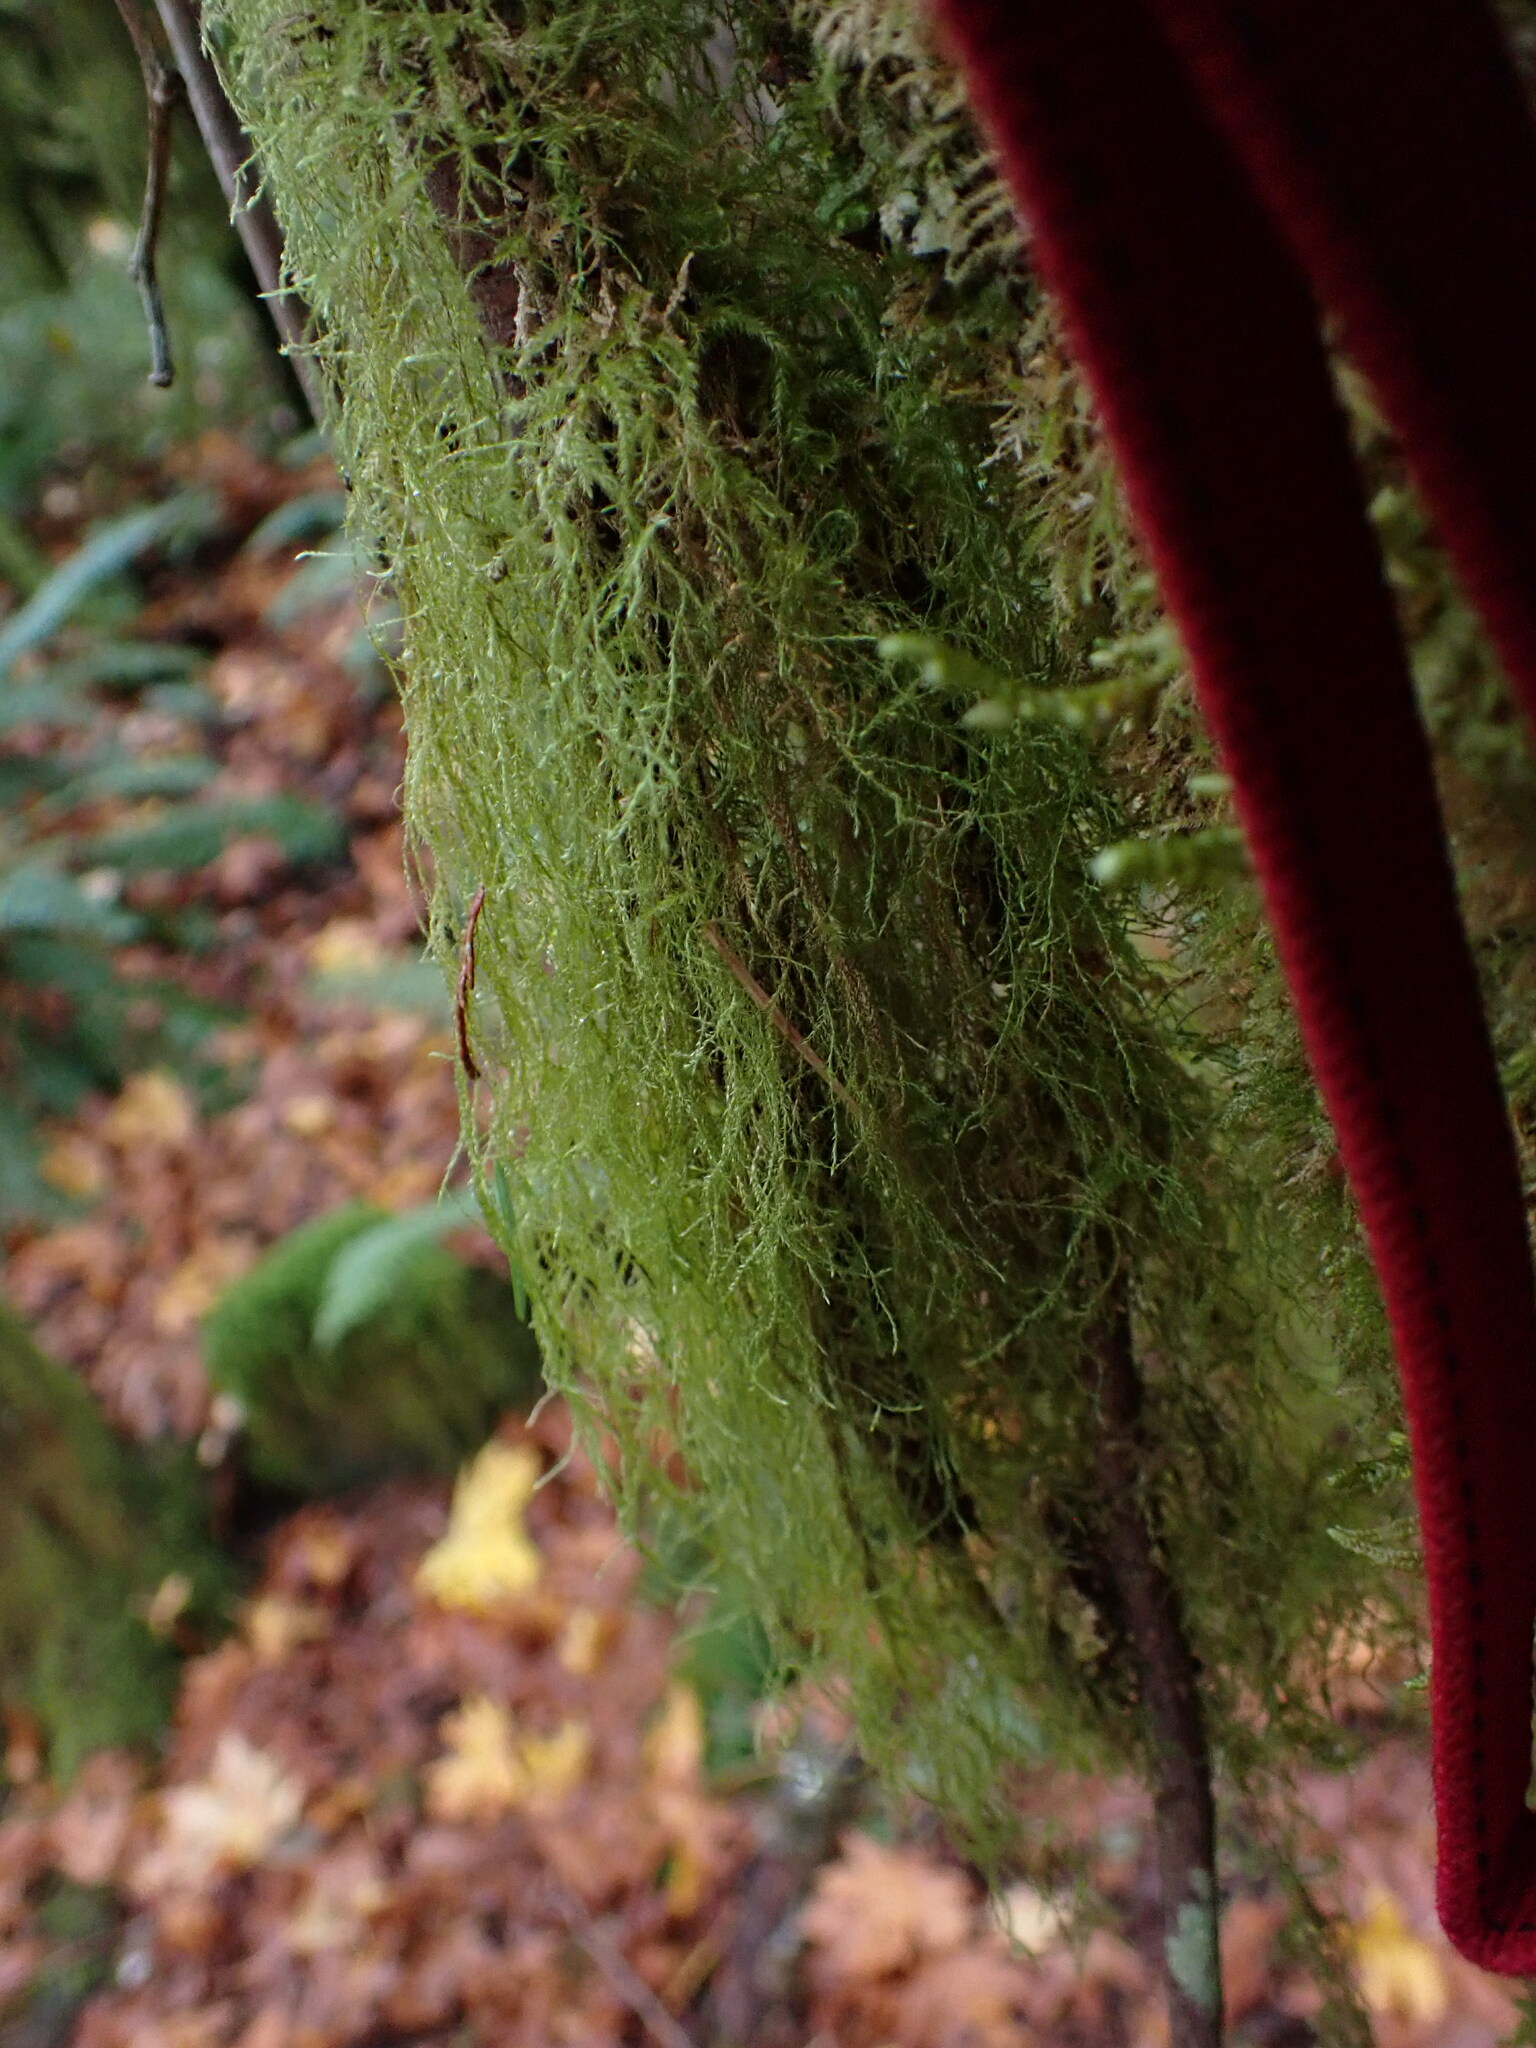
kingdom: Plantae
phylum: Bryophyta
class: Bryopsida
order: Hypnales
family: Lembophyllaceae
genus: Pseudisothecium
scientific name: Pseudisothecium stoloniferum
